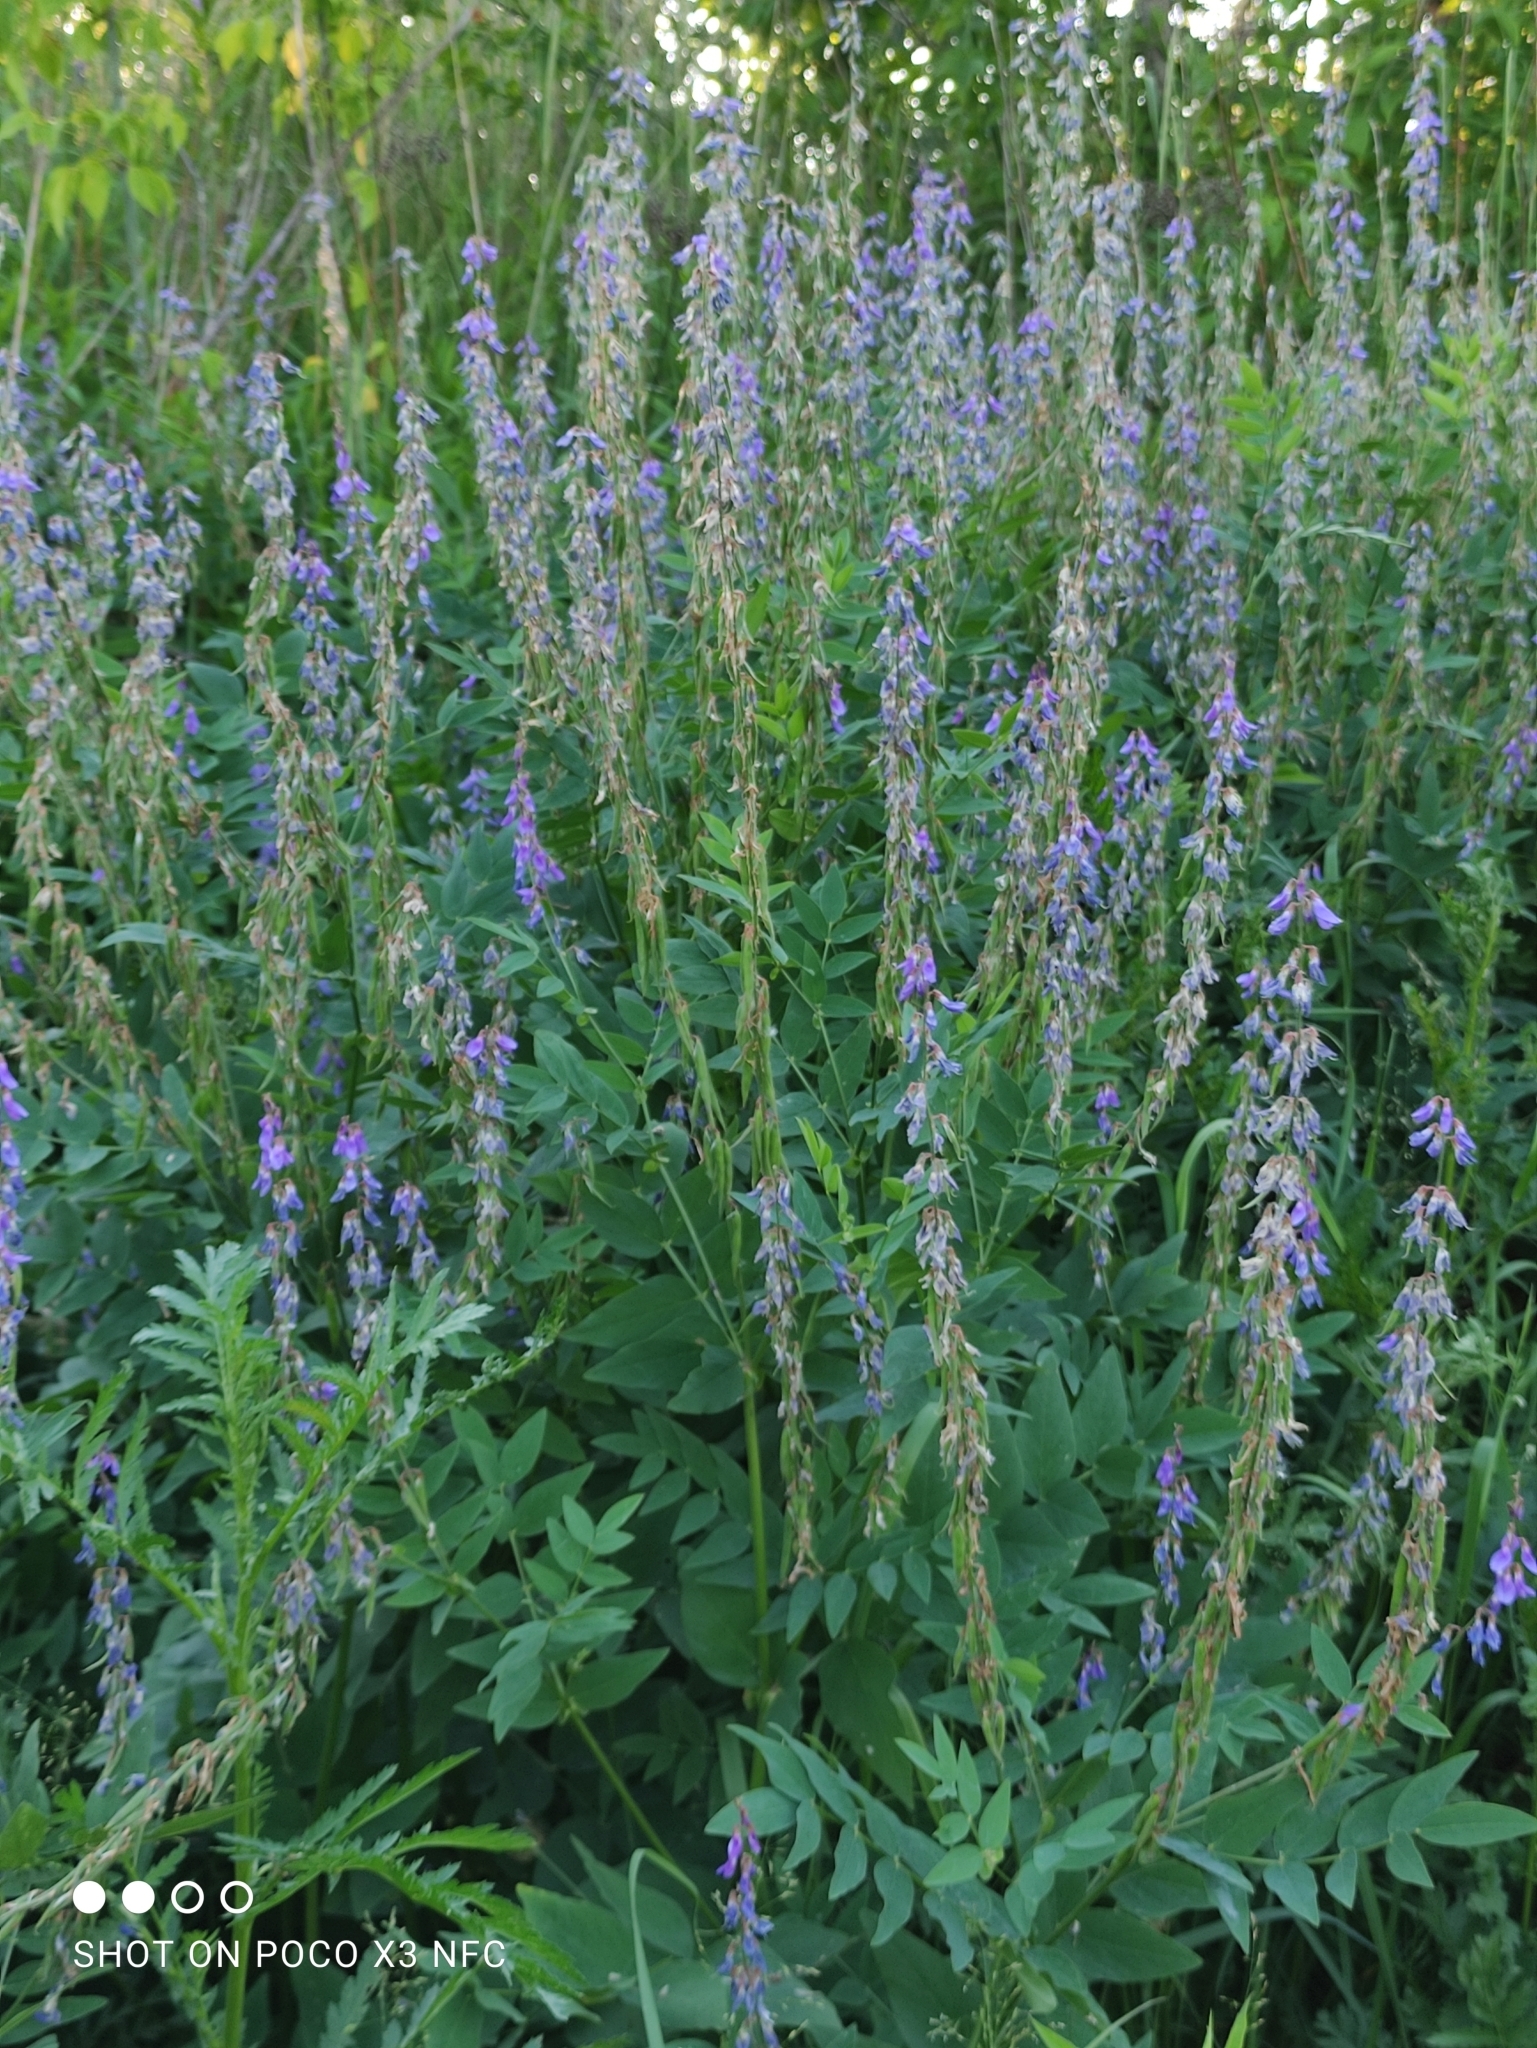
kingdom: Plantae
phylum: Tracheophyta
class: Magnoliopsida
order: Fabales
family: Fabaceae
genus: Galega
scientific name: Galega orientalis
